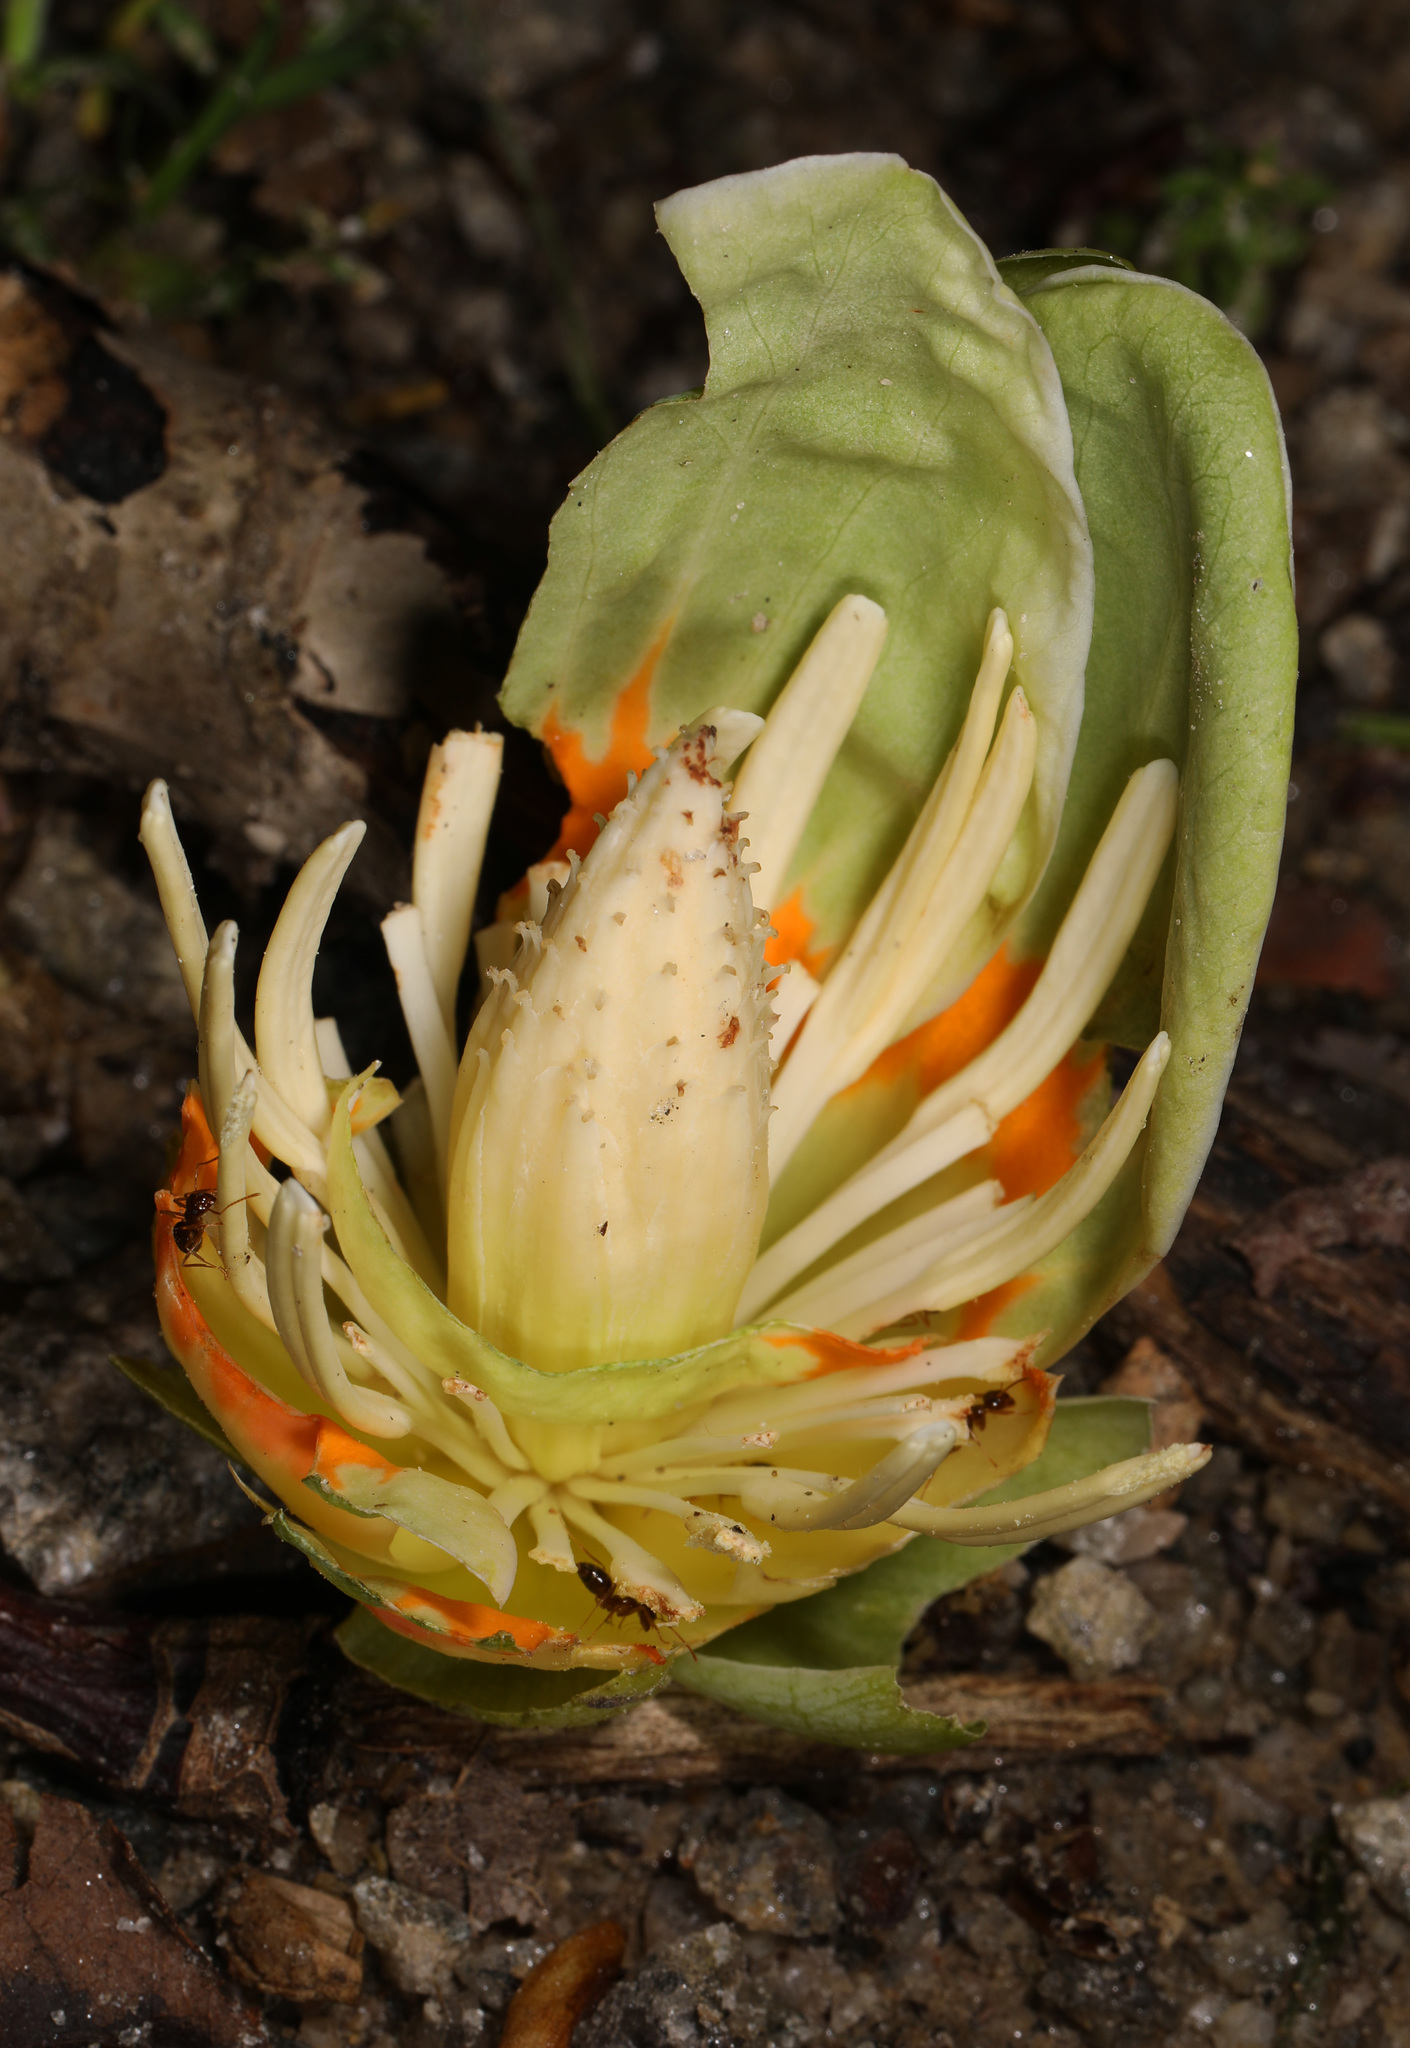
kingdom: Plantae
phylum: Tracheophyta
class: Magnoliopsida
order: Magnoliales
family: Magnoliaceae
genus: Liriodendron
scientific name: Liriodendron tulipifera
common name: Tulip tree
